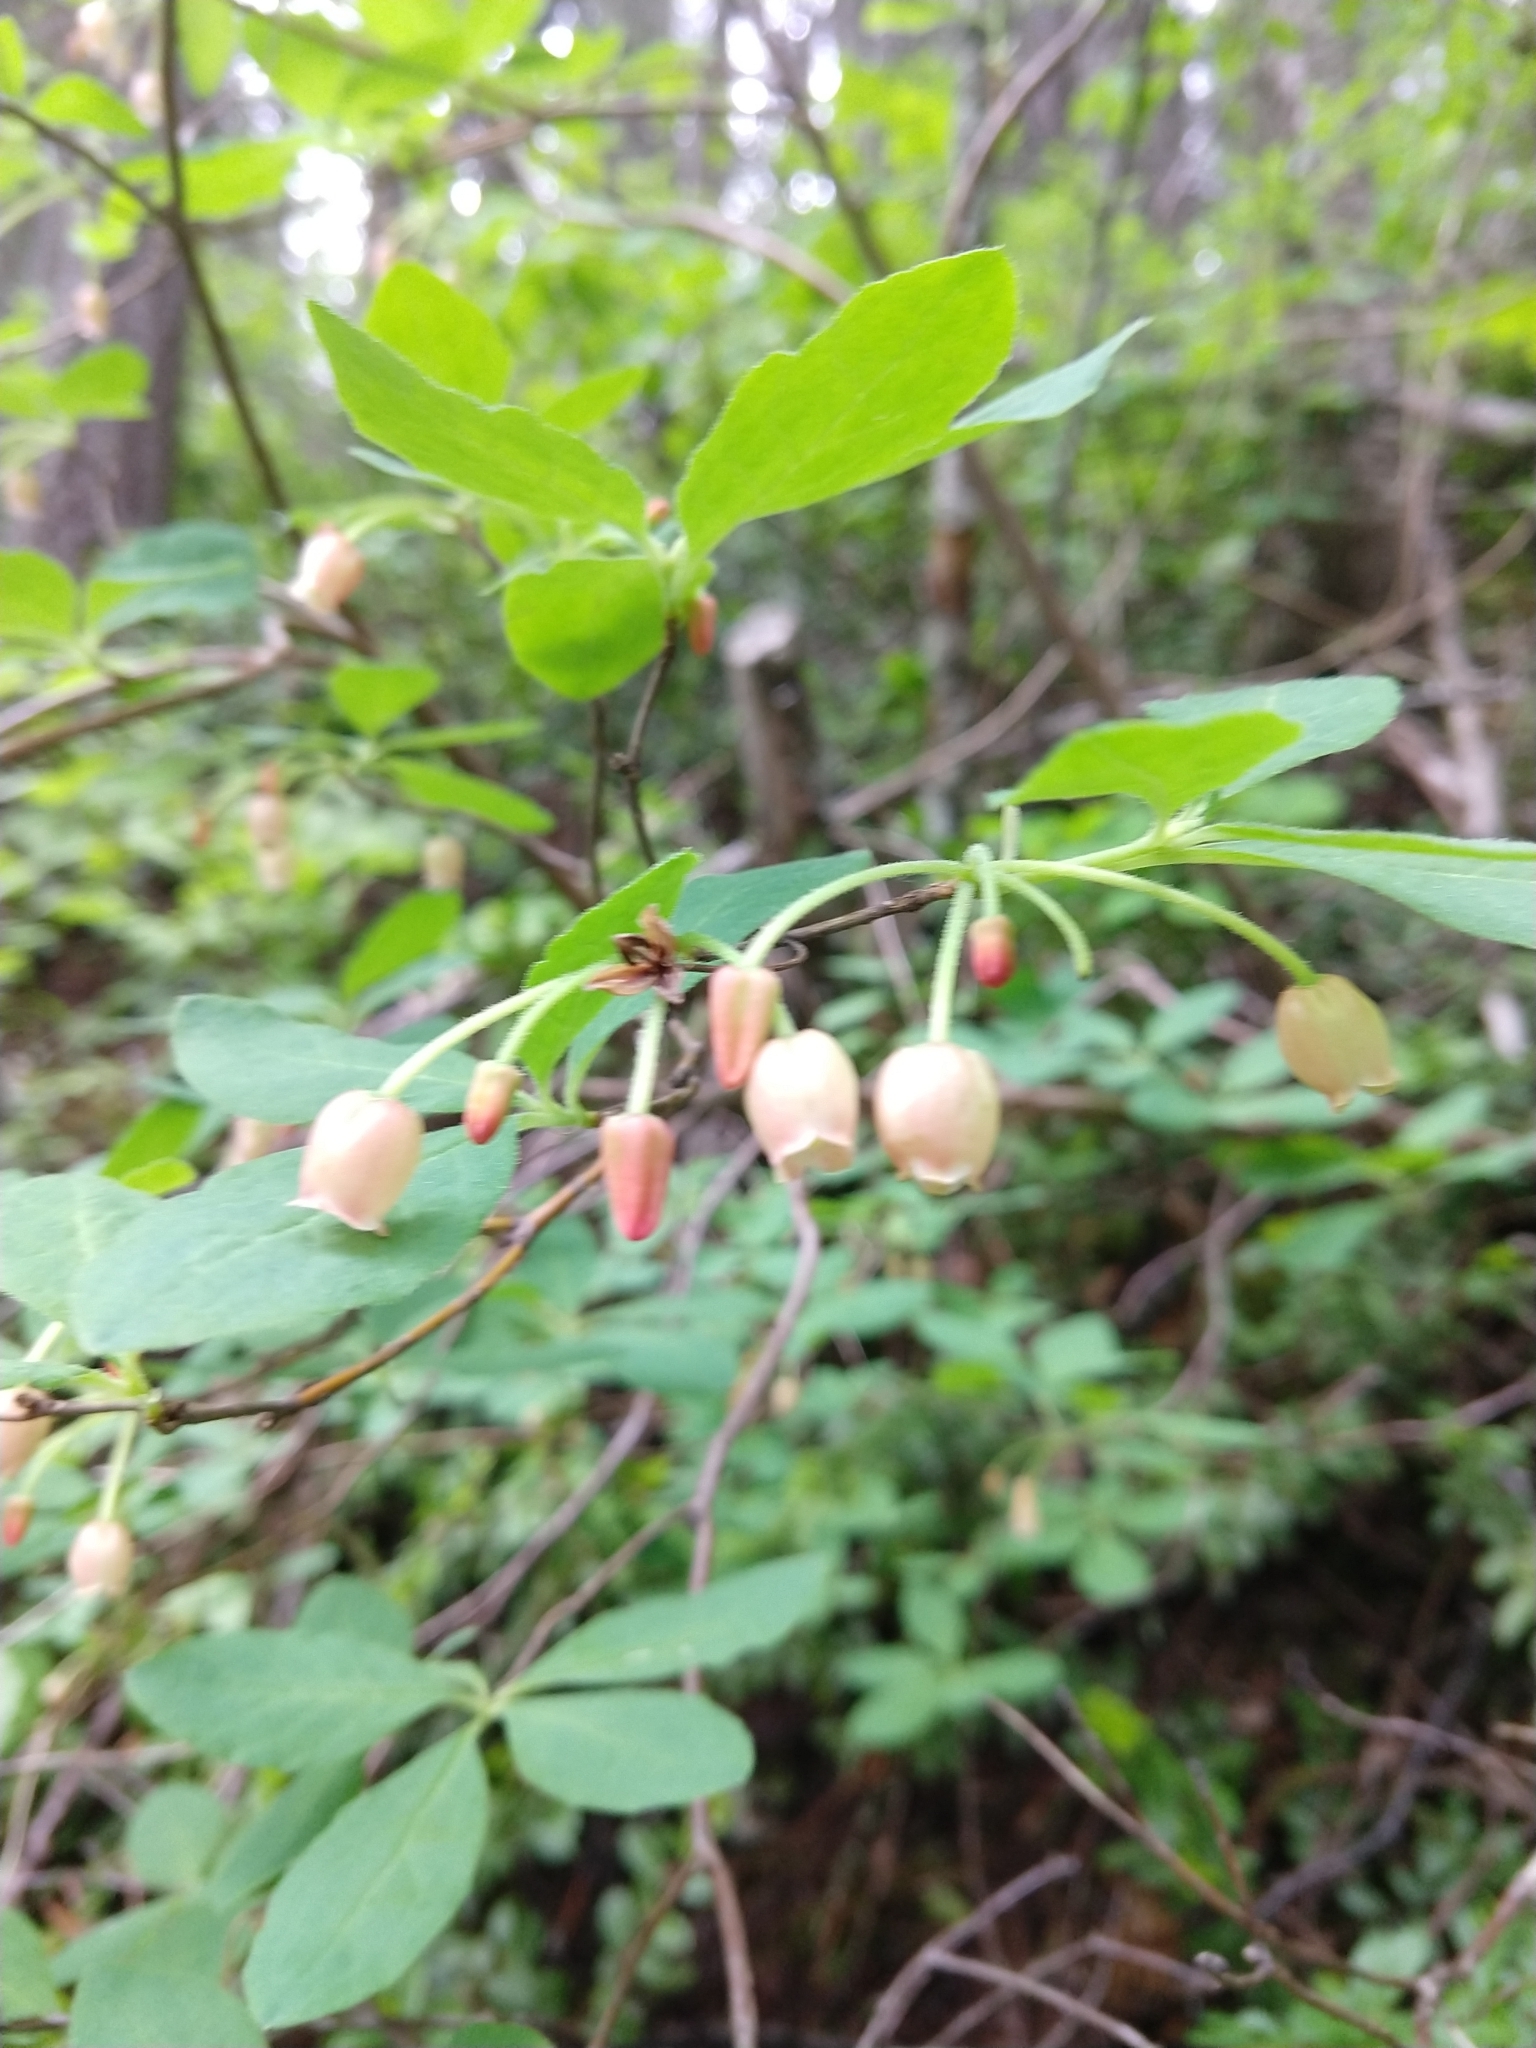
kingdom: Plantae
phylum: Tracheophyta
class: Magnoliopsida
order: Ericales
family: Ericaceae
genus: Rhododendron
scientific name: Rhododendron menziesii
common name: Pacific menziesia
